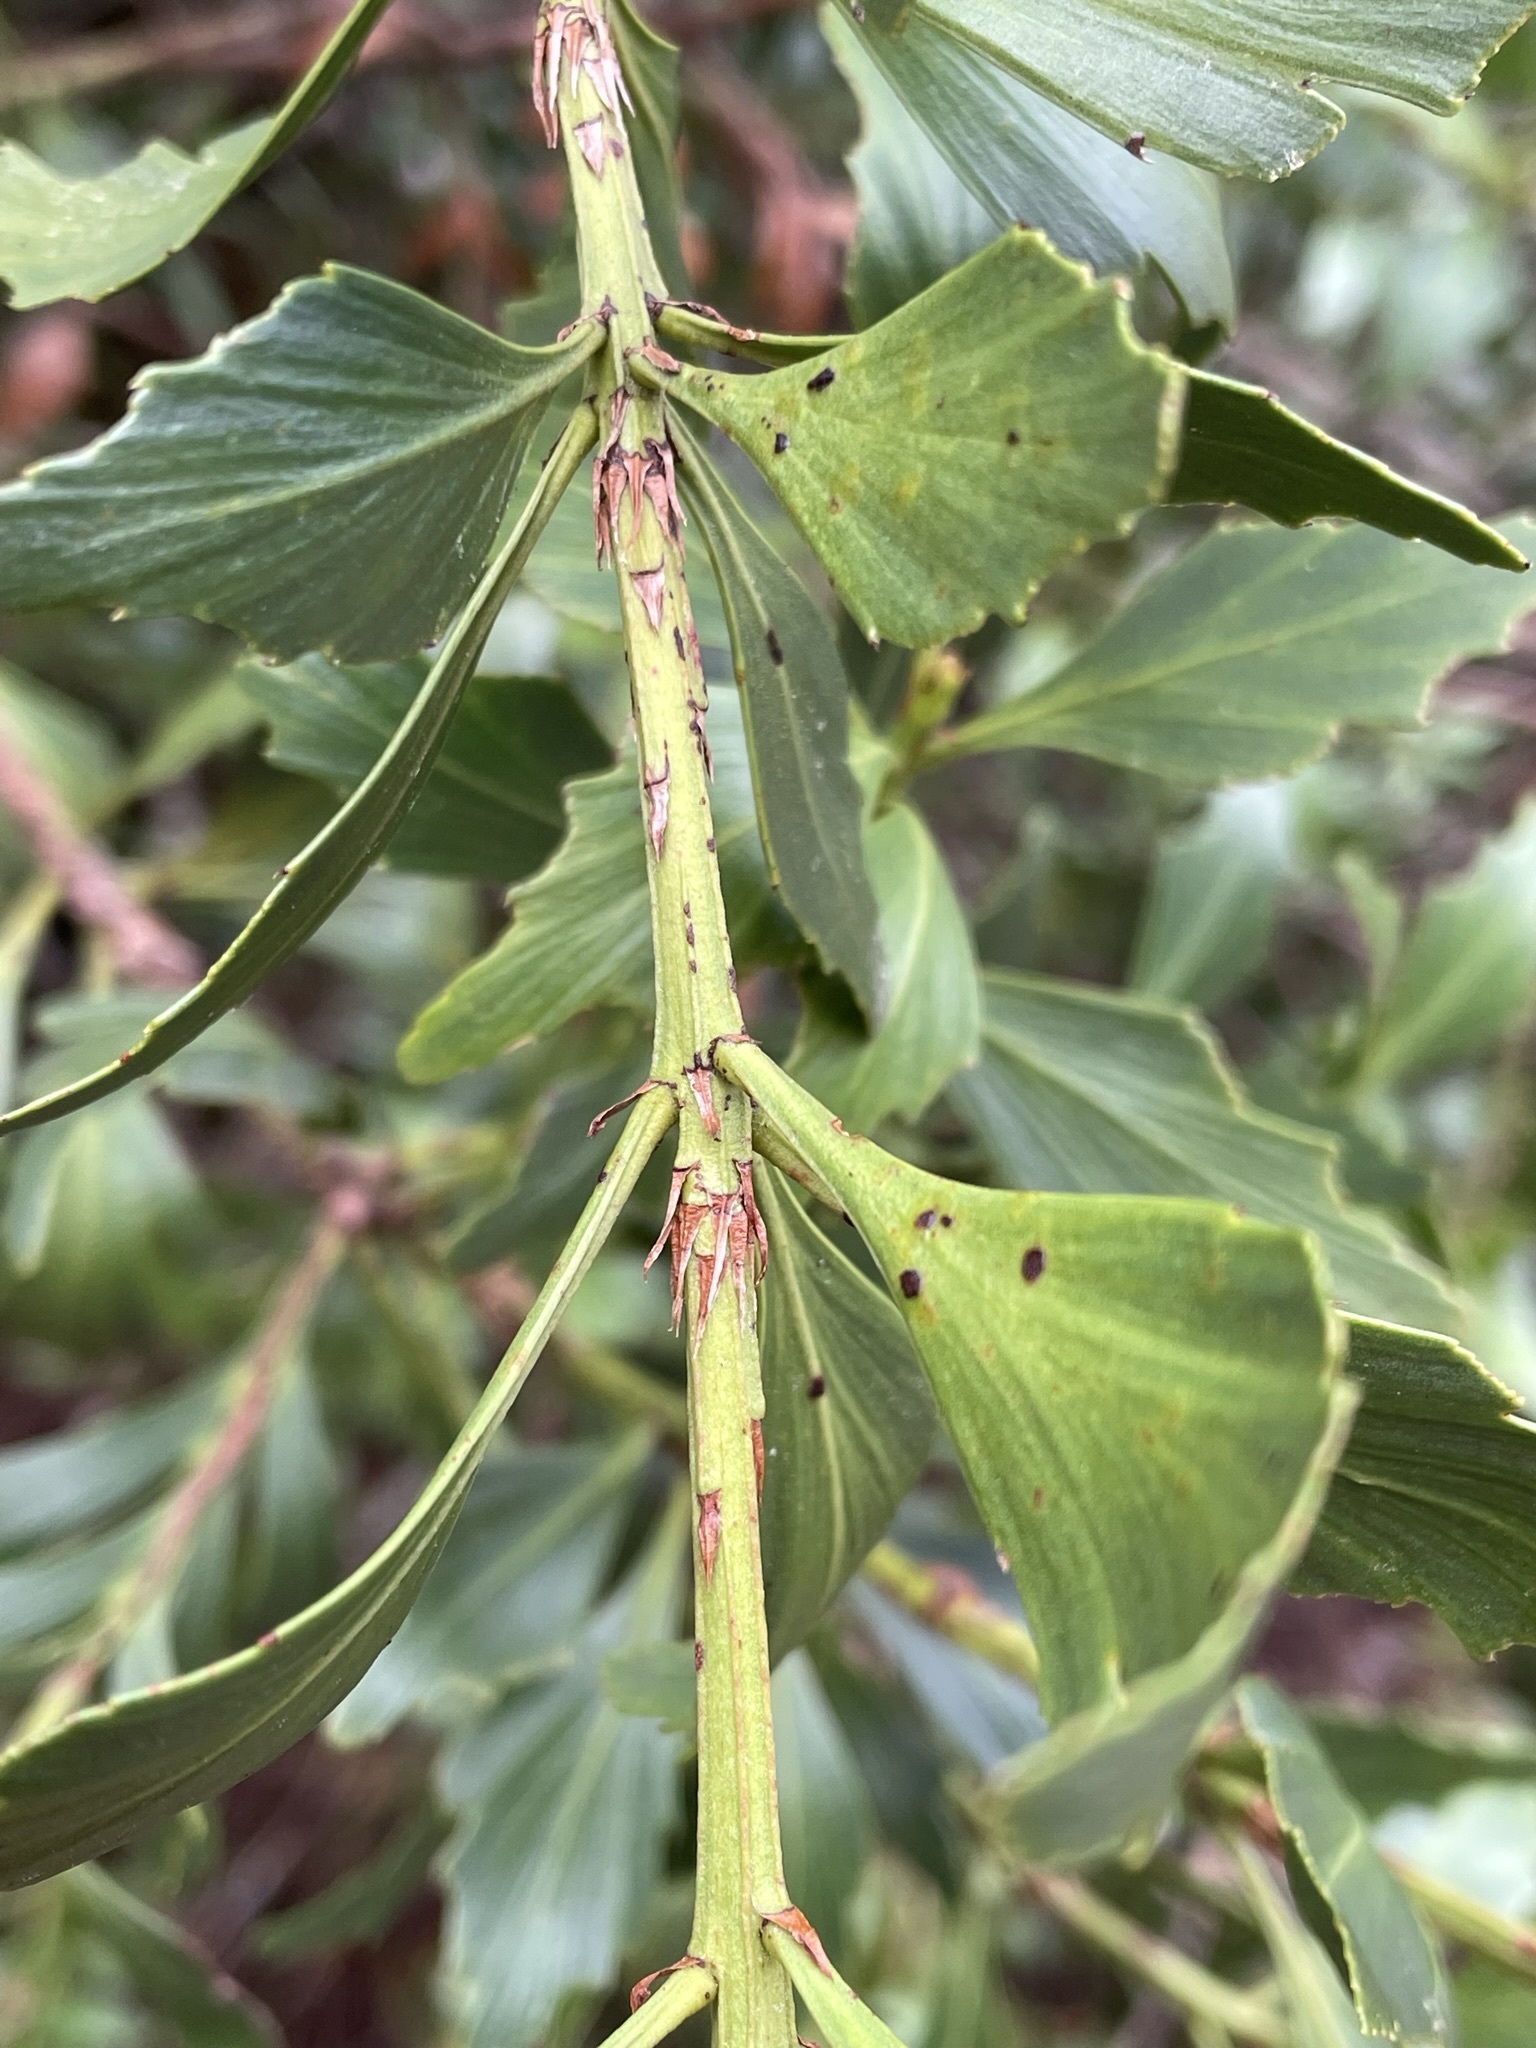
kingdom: Plantae
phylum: Tracheophyta
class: Pinopsida
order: Pinales
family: Phyllocladaceae
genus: Phyllocladus
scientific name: Phyllocladus aspleniifolius
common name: Celery-top pine
